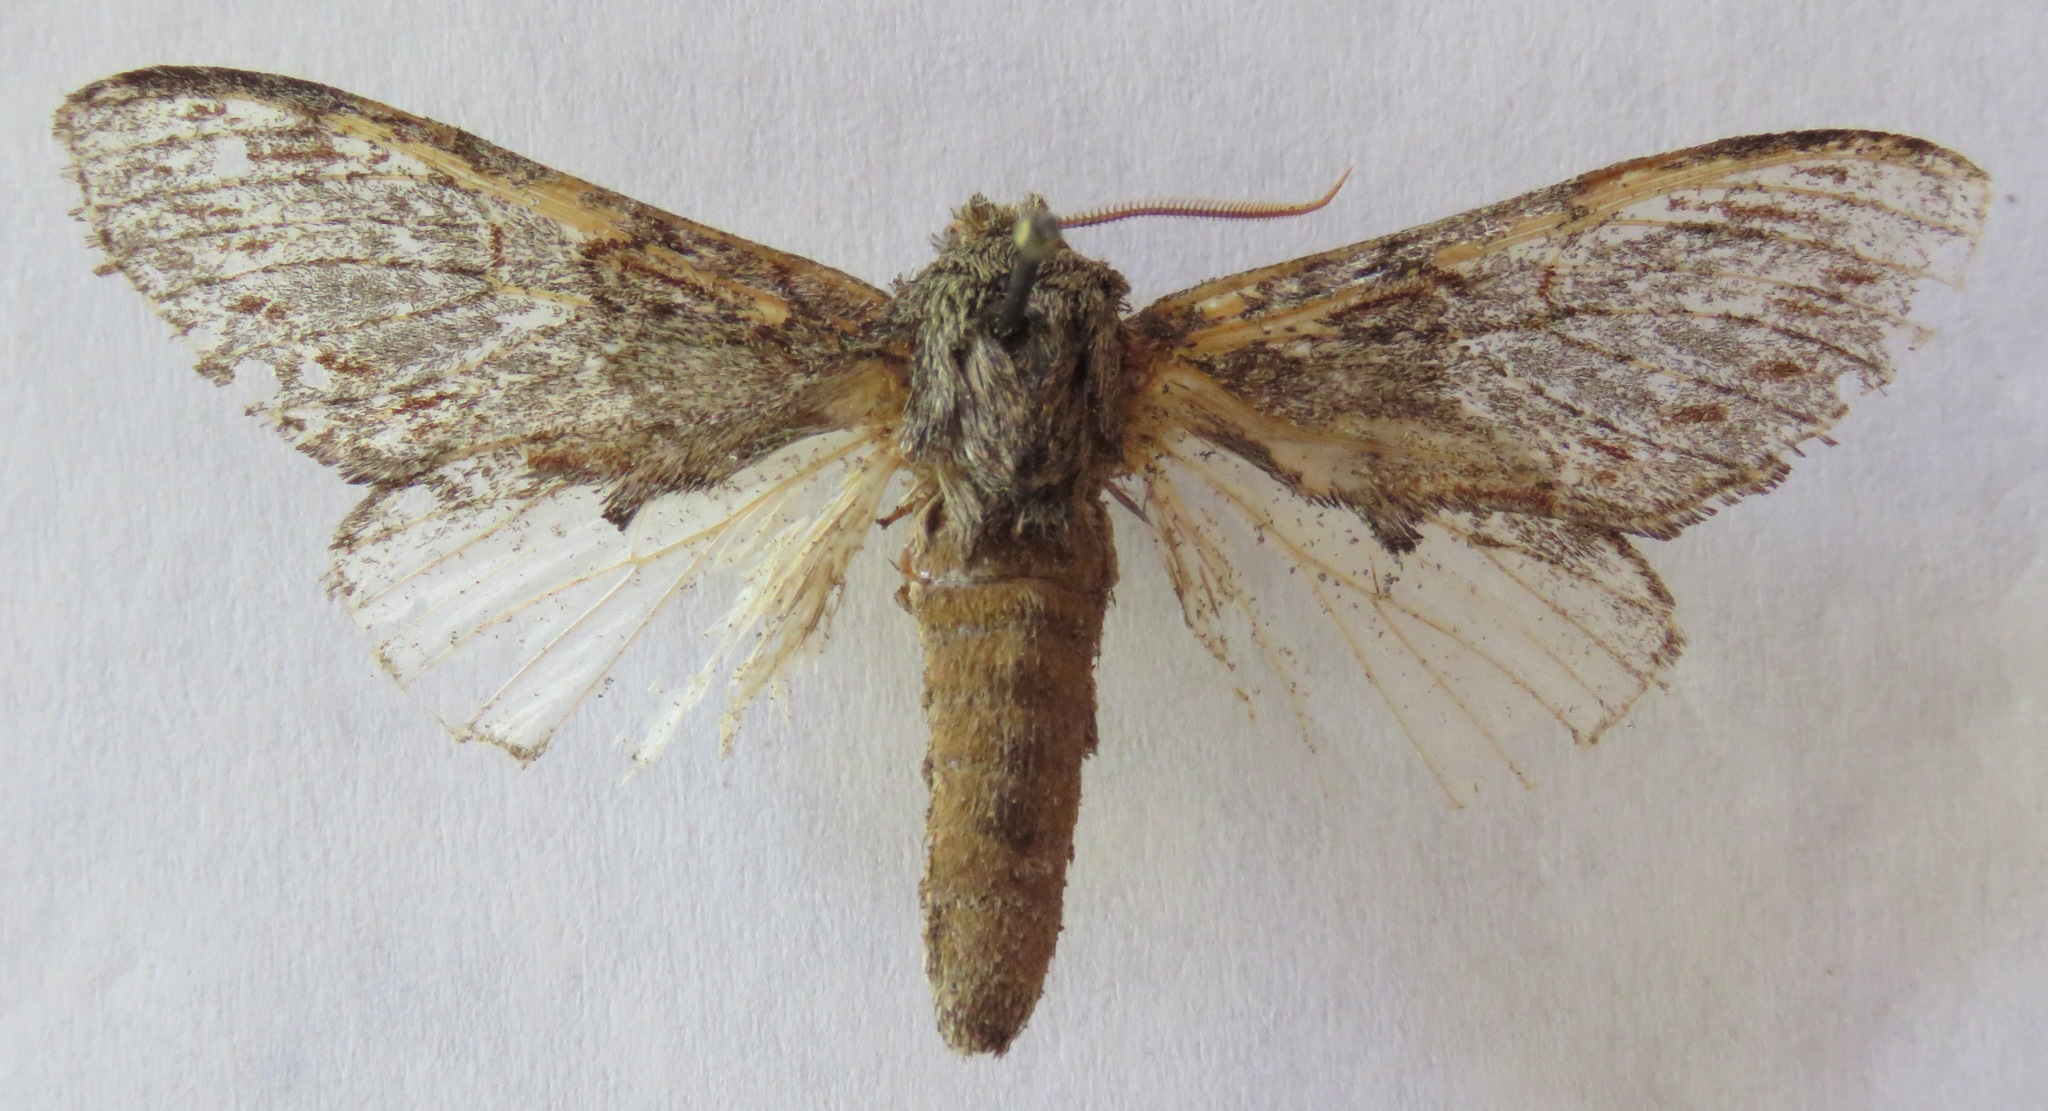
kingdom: Animalia
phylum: Arthropoda
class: Insecta
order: Lepidoptera
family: Notodontidae
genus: Peridea
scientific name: Peridea anceps
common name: Great prominent
